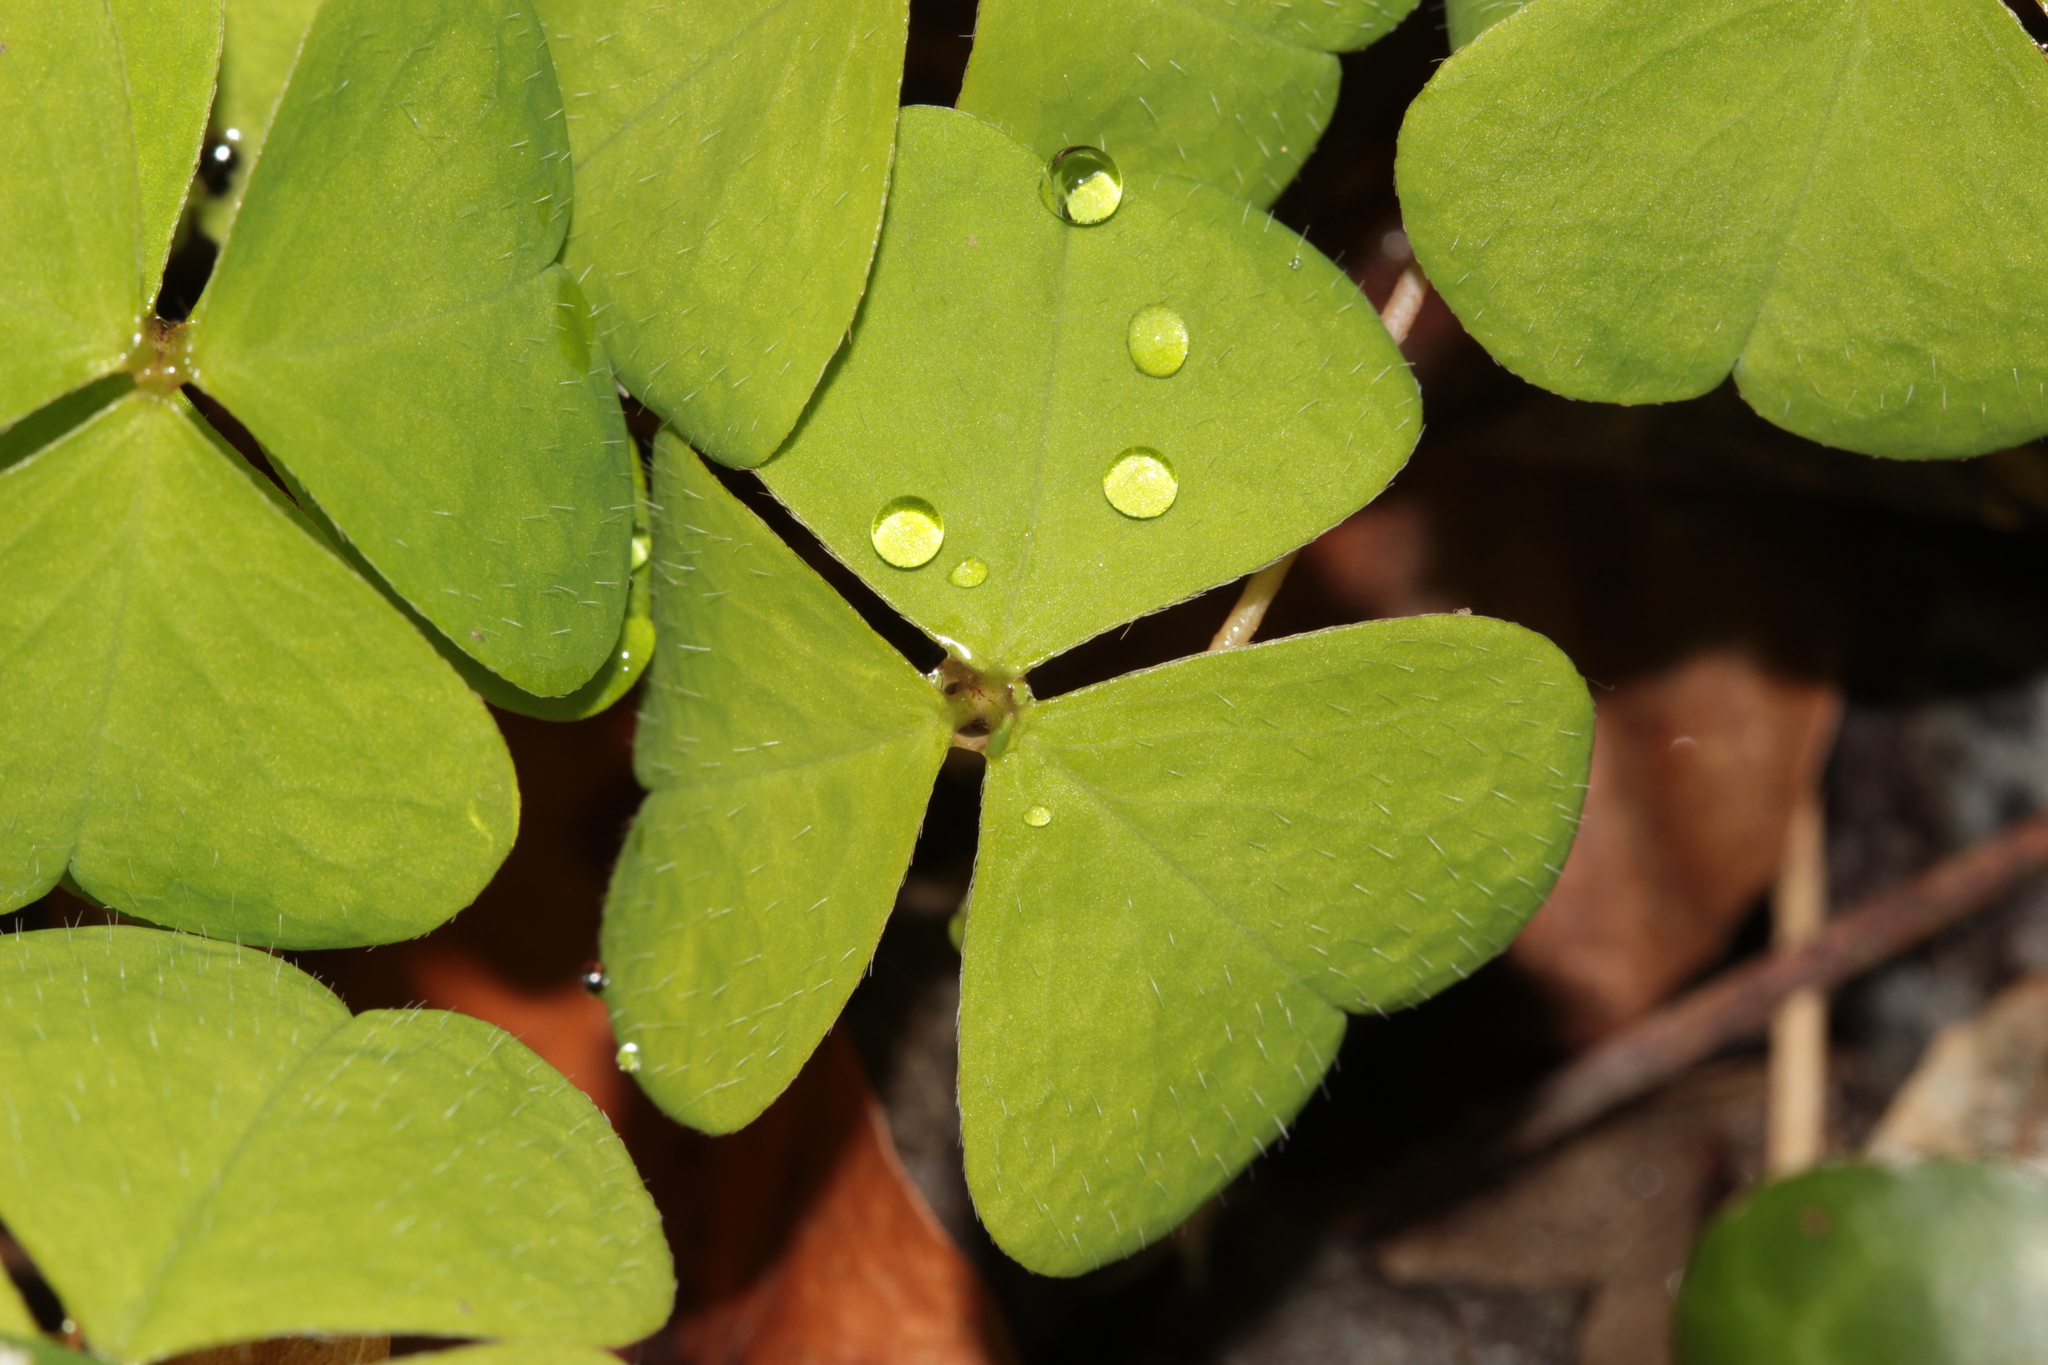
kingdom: Plantae
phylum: Tracheophyta
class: Magnoliopsida
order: Oxalidales
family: Oxalidaceae
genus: Oxalis
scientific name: Oxalis acetosella
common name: Wood-sorrel
